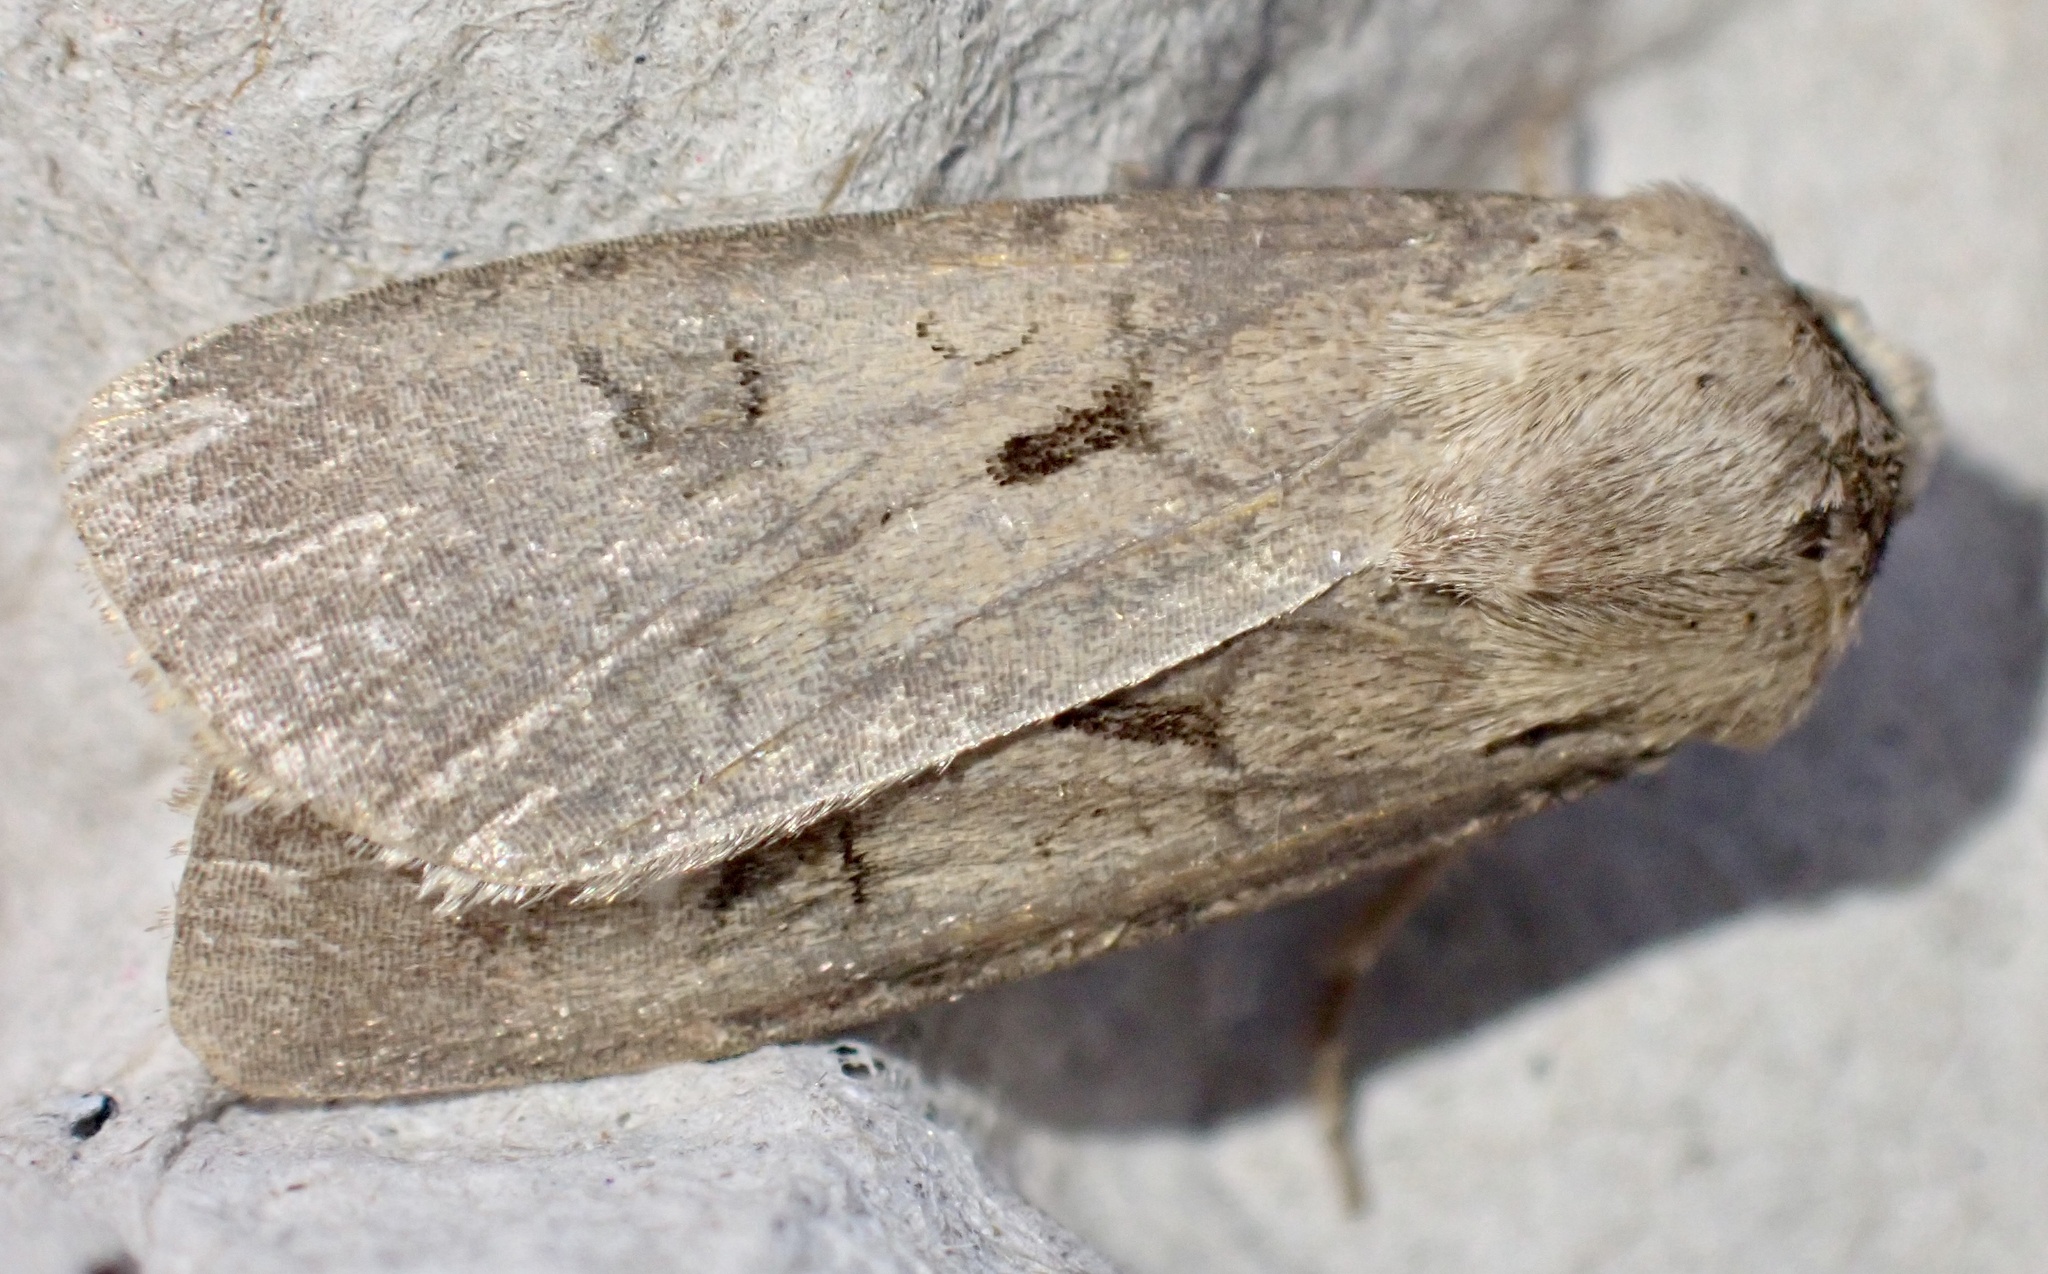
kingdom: Animalia
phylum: Arthropoda
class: Insecta
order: Lepidoptera
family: Noctuidae
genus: Agrotis
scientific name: Agrotis exclamationis
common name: Heart and dart
